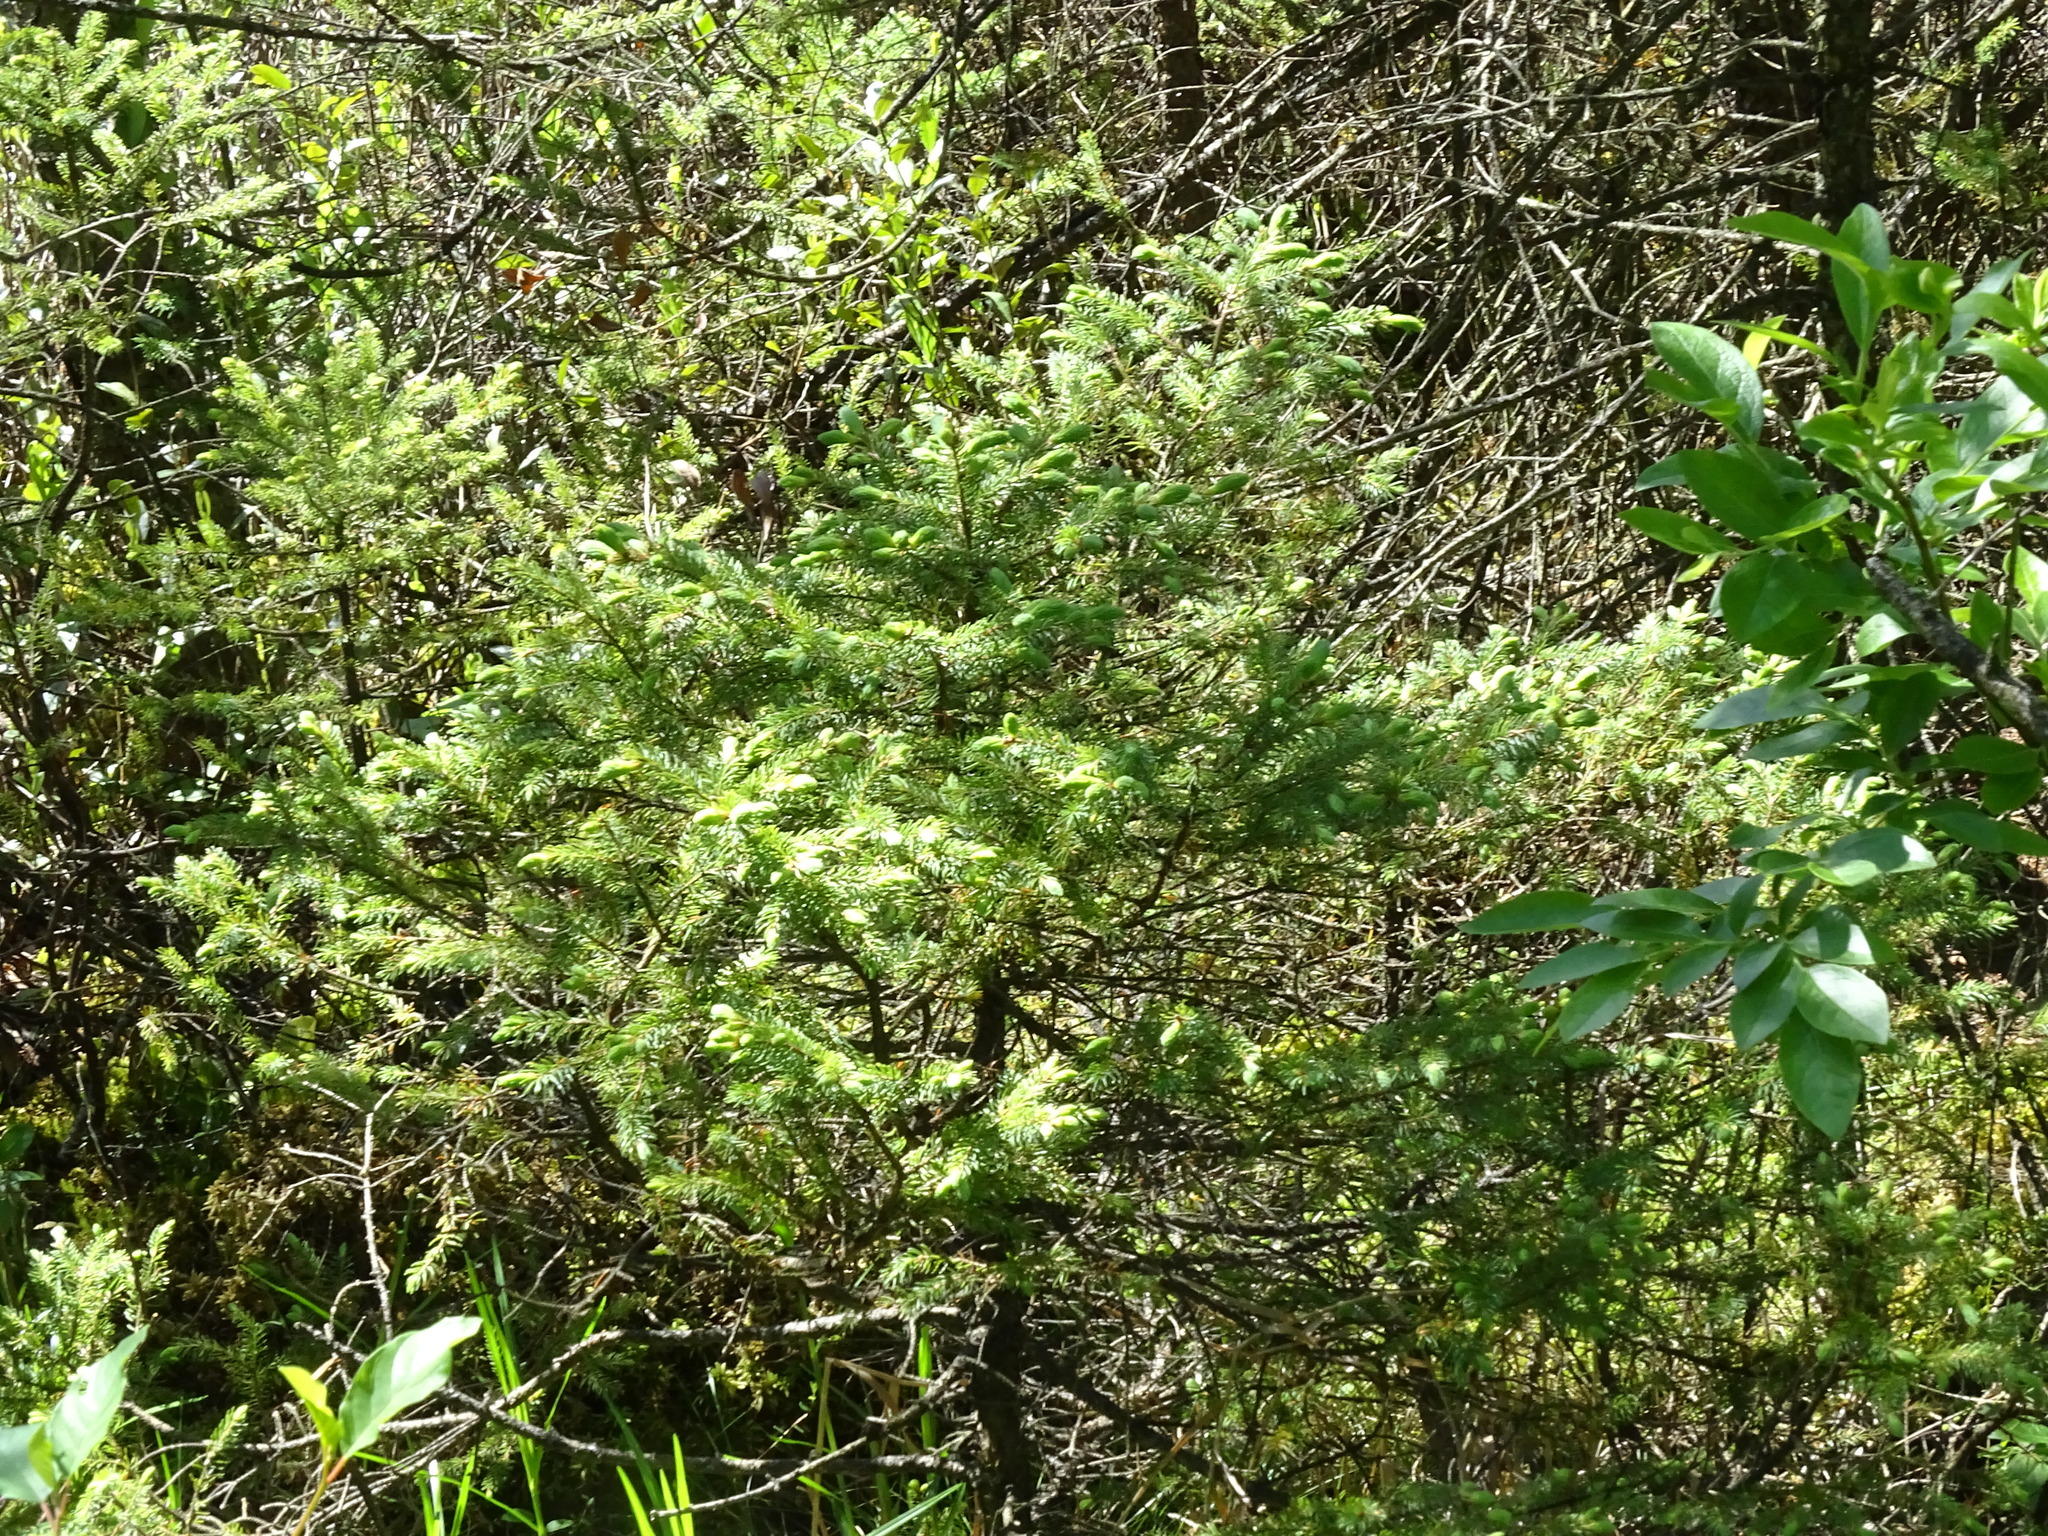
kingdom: Plantae
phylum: Tracheophyta
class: Pinopsida
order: Pinales
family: Pinaceae
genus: Picea
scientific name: Picea mariana
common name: Black spruce
